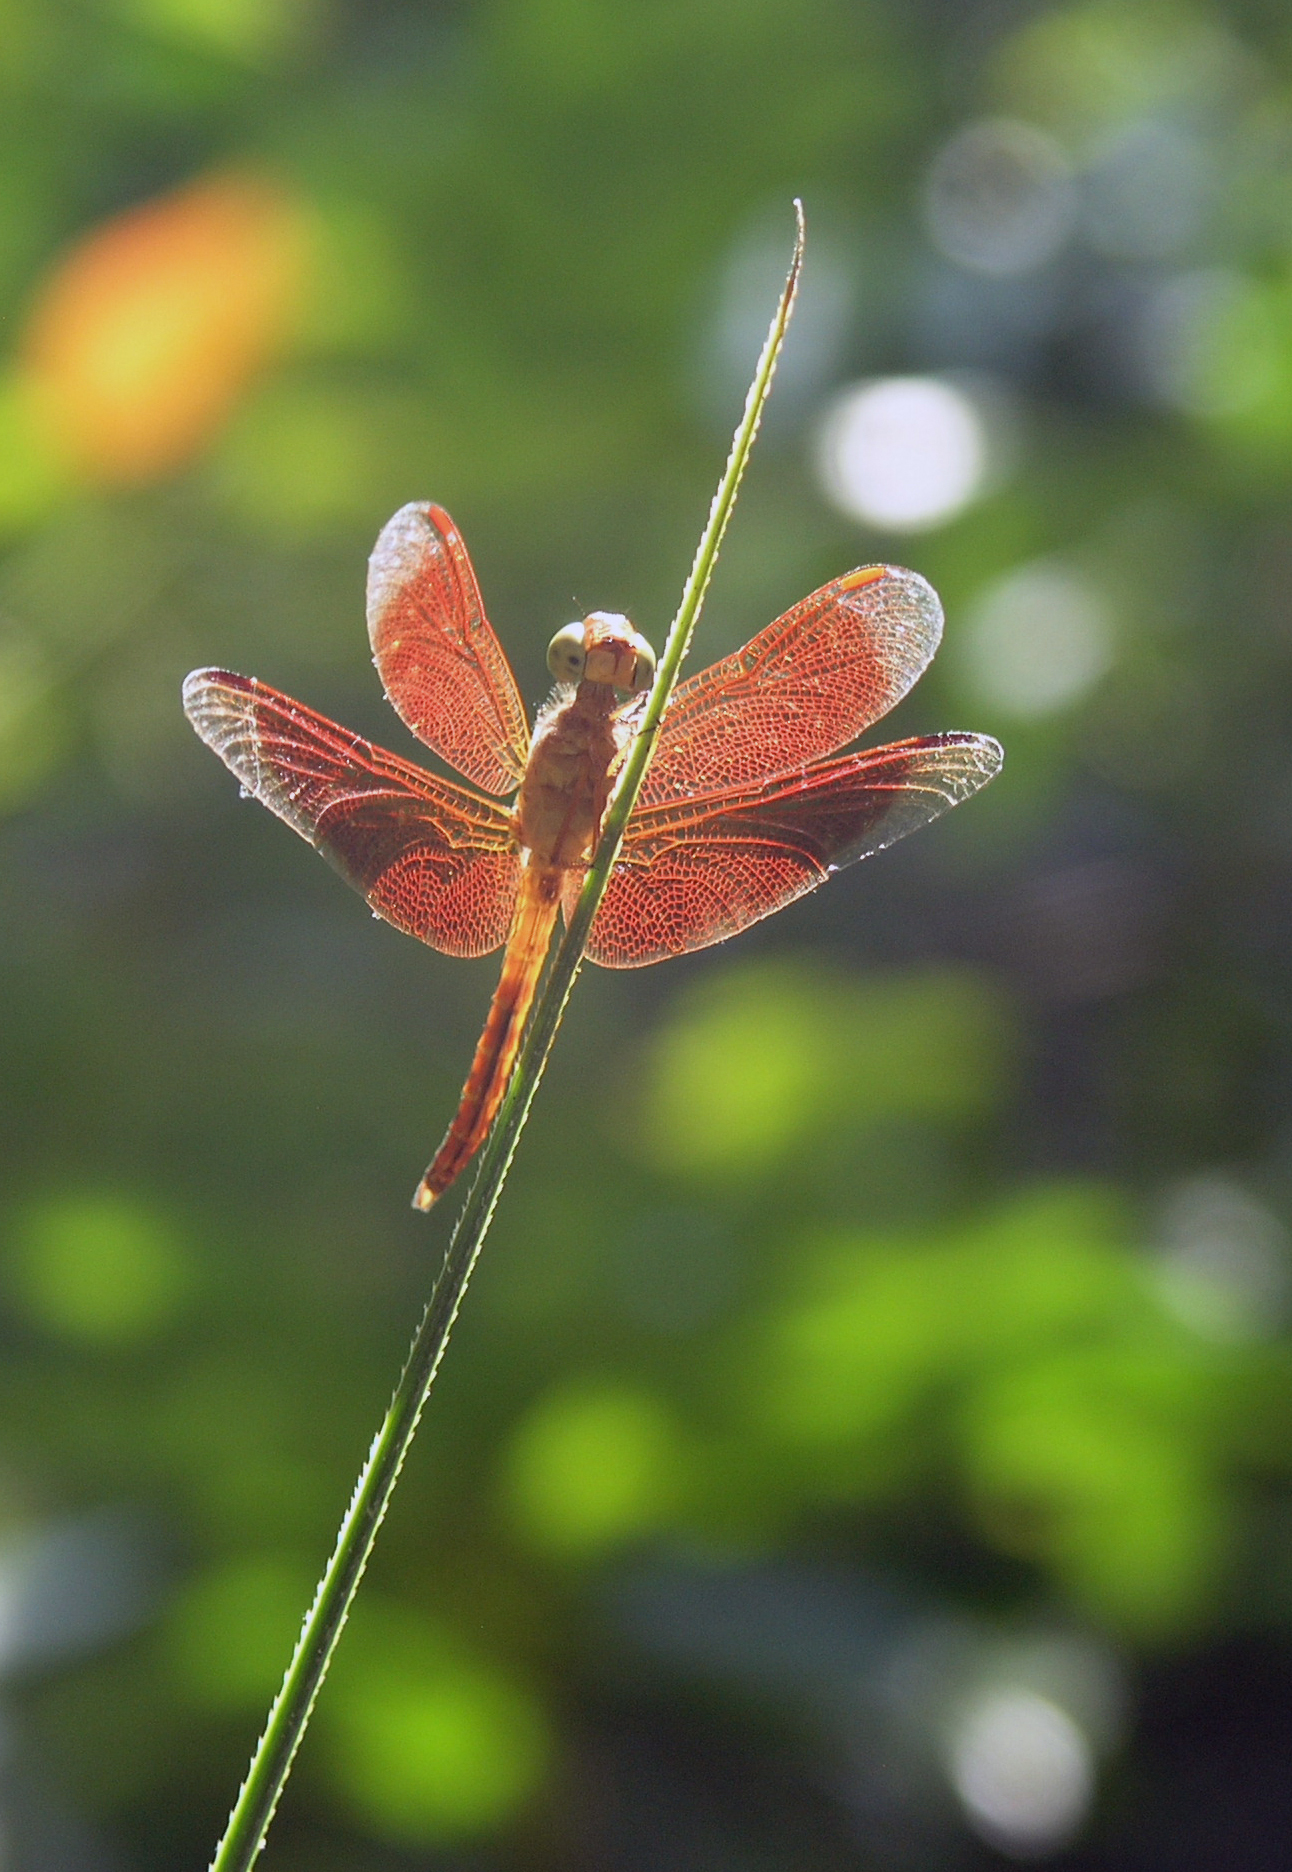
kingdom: Animalia
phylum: Arthropoda
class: Insecta
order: Odonata
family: Libellulidae
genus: Neurothemis
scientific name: Neurothemis fluctuans
